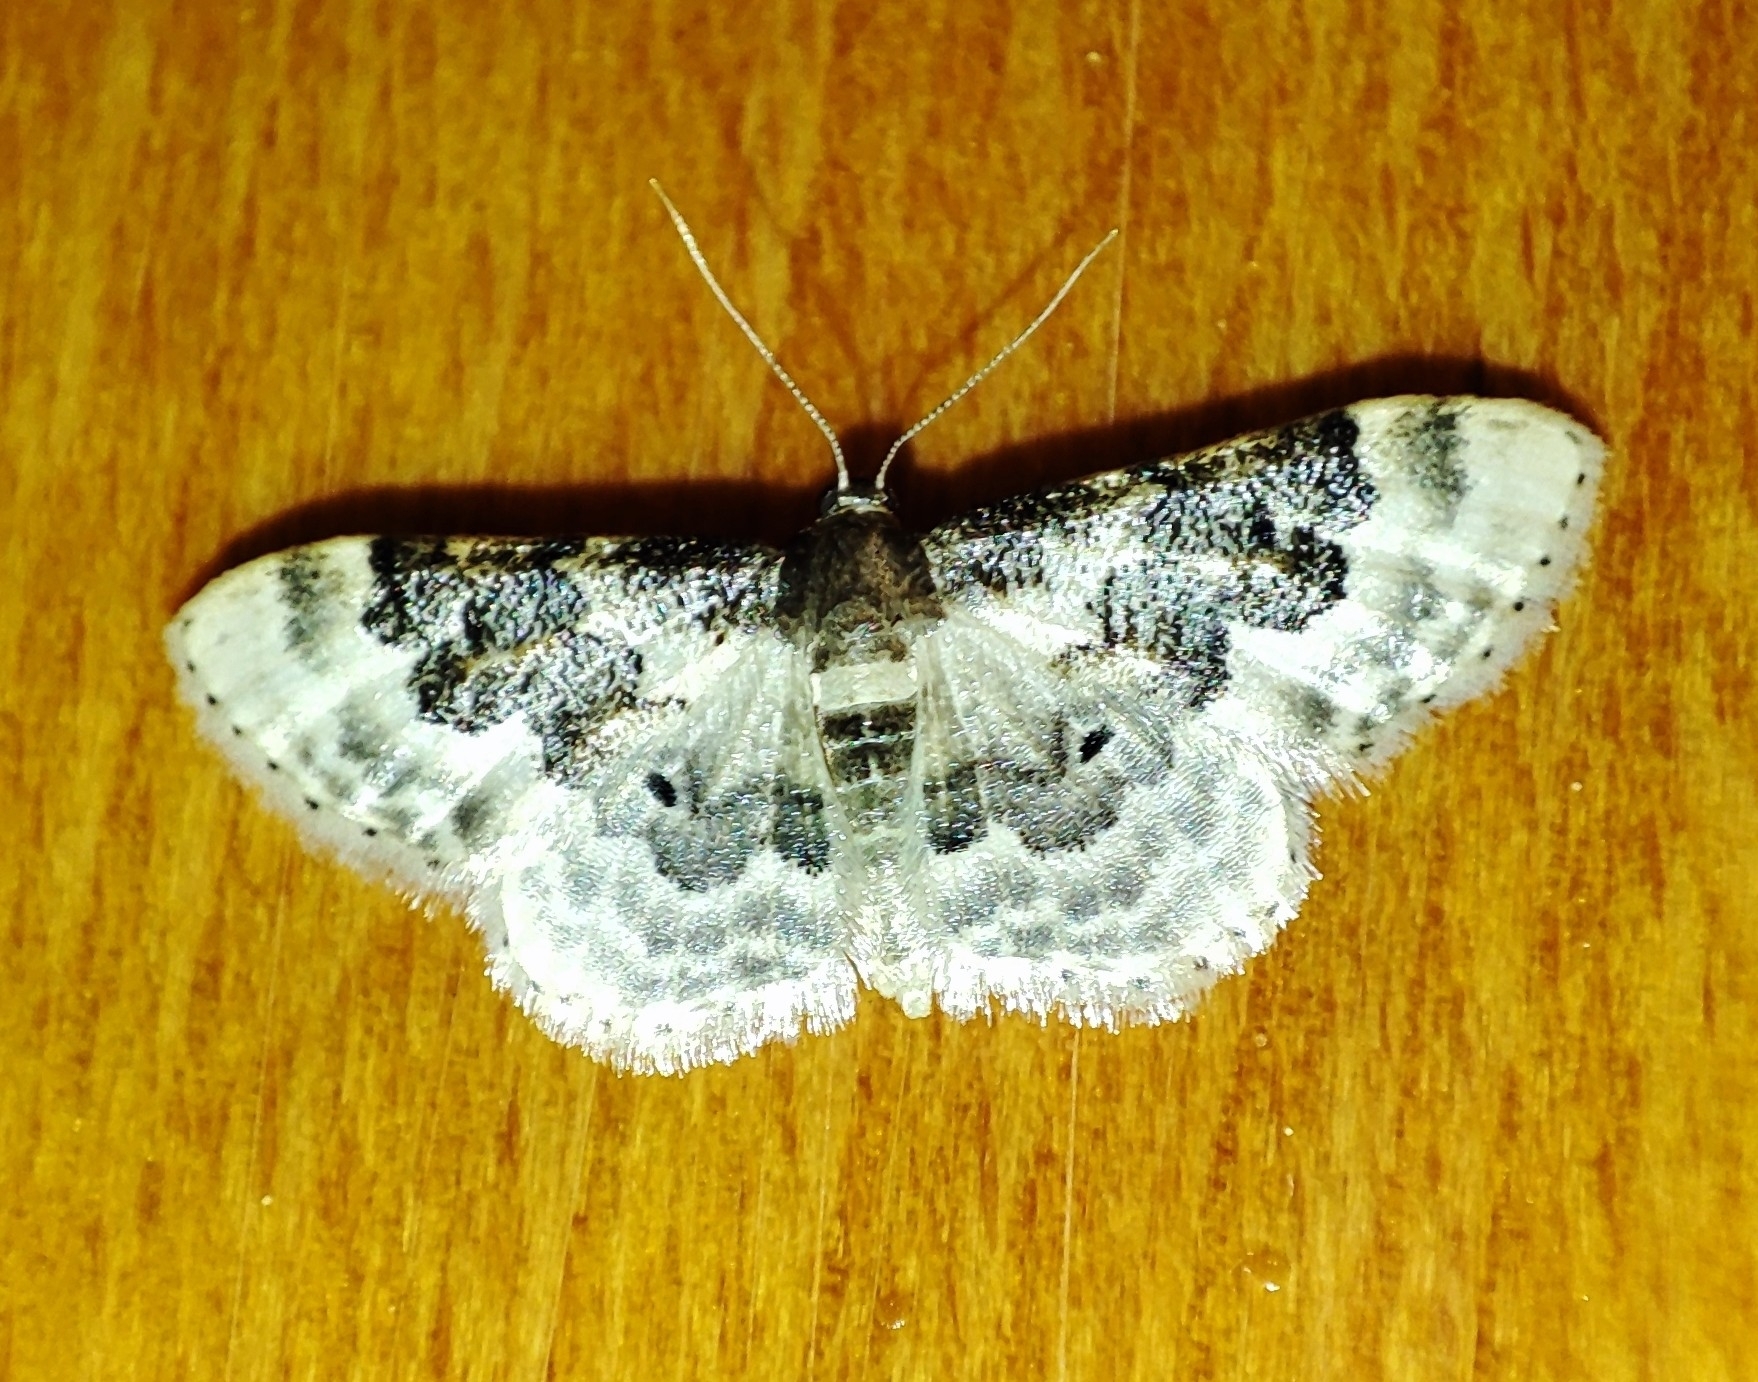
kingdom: Animalia
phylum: Arthropoda
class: Insecta
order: Lepidoptera
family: Geometridae
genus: Idaea
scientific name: Idaea rusticata
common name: Least carpet
